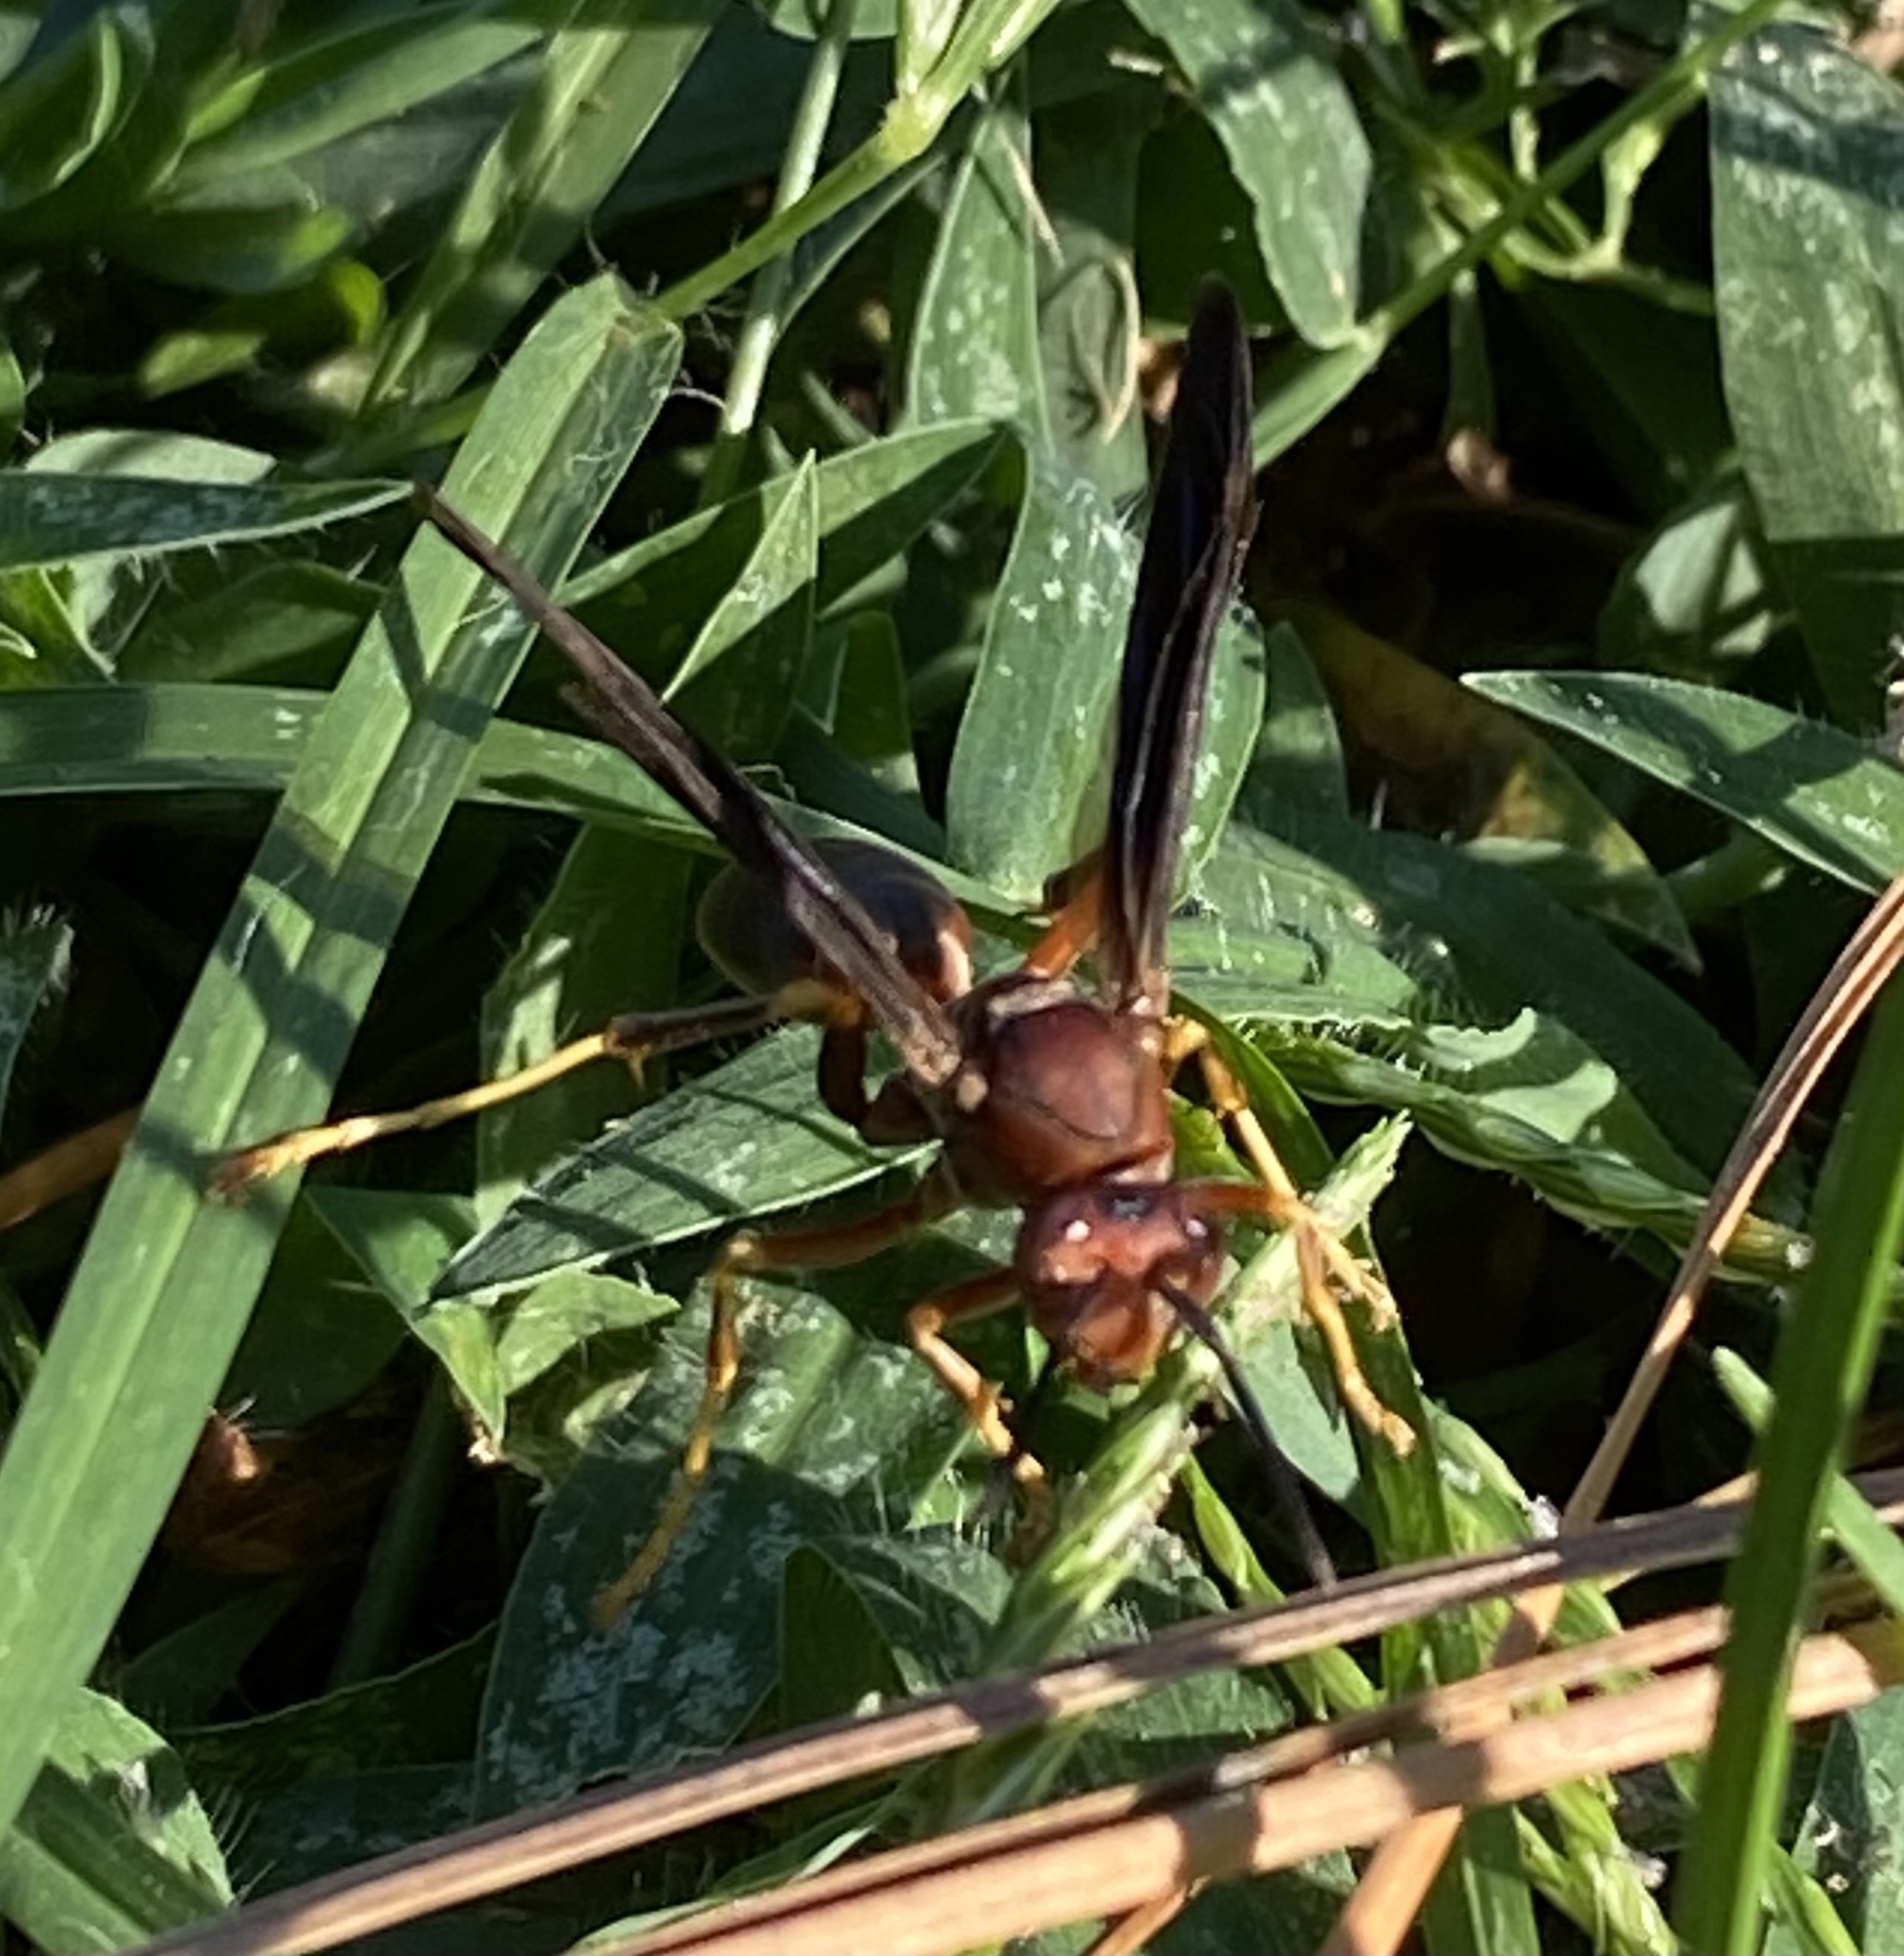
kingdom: Animalia
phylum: Arthropoda
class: Insecta
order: Hymenoptera
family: Eumenidae
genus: Polistes
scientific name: Polistes metricus
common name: Metric paper wasp
